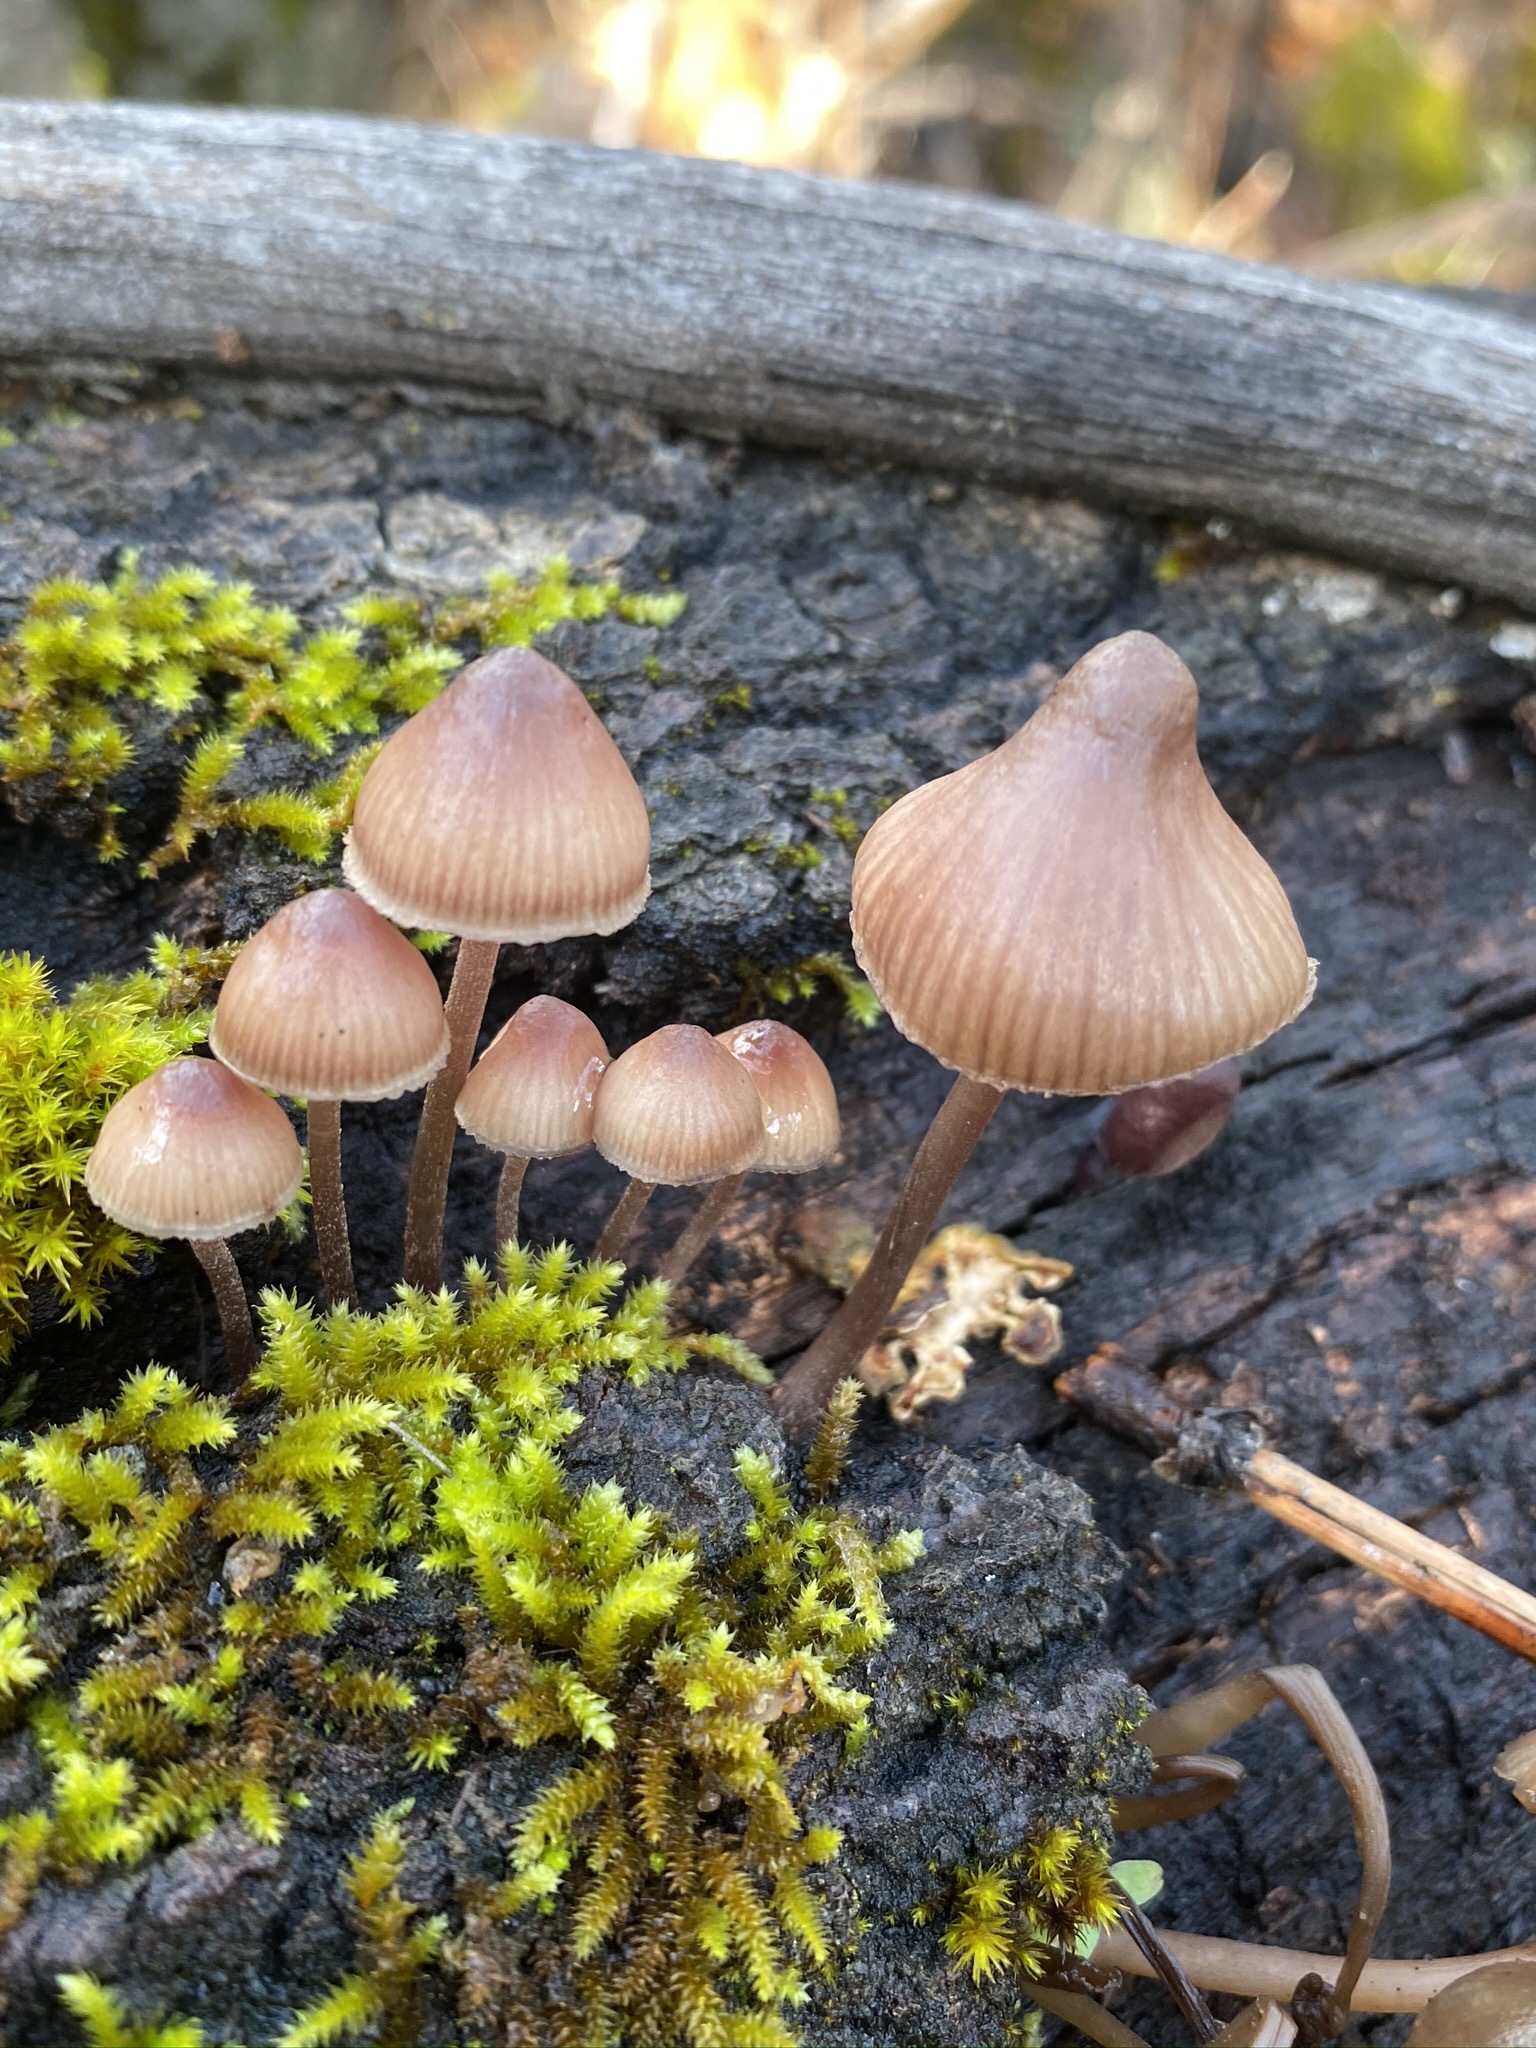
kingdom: Fungi
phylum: Basidiomycota
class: Agaricomycetes
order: Agaricales
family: Mycenaceae
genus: Mycena
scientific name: Mycena haematopus
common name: Burgundydrop bonnet
